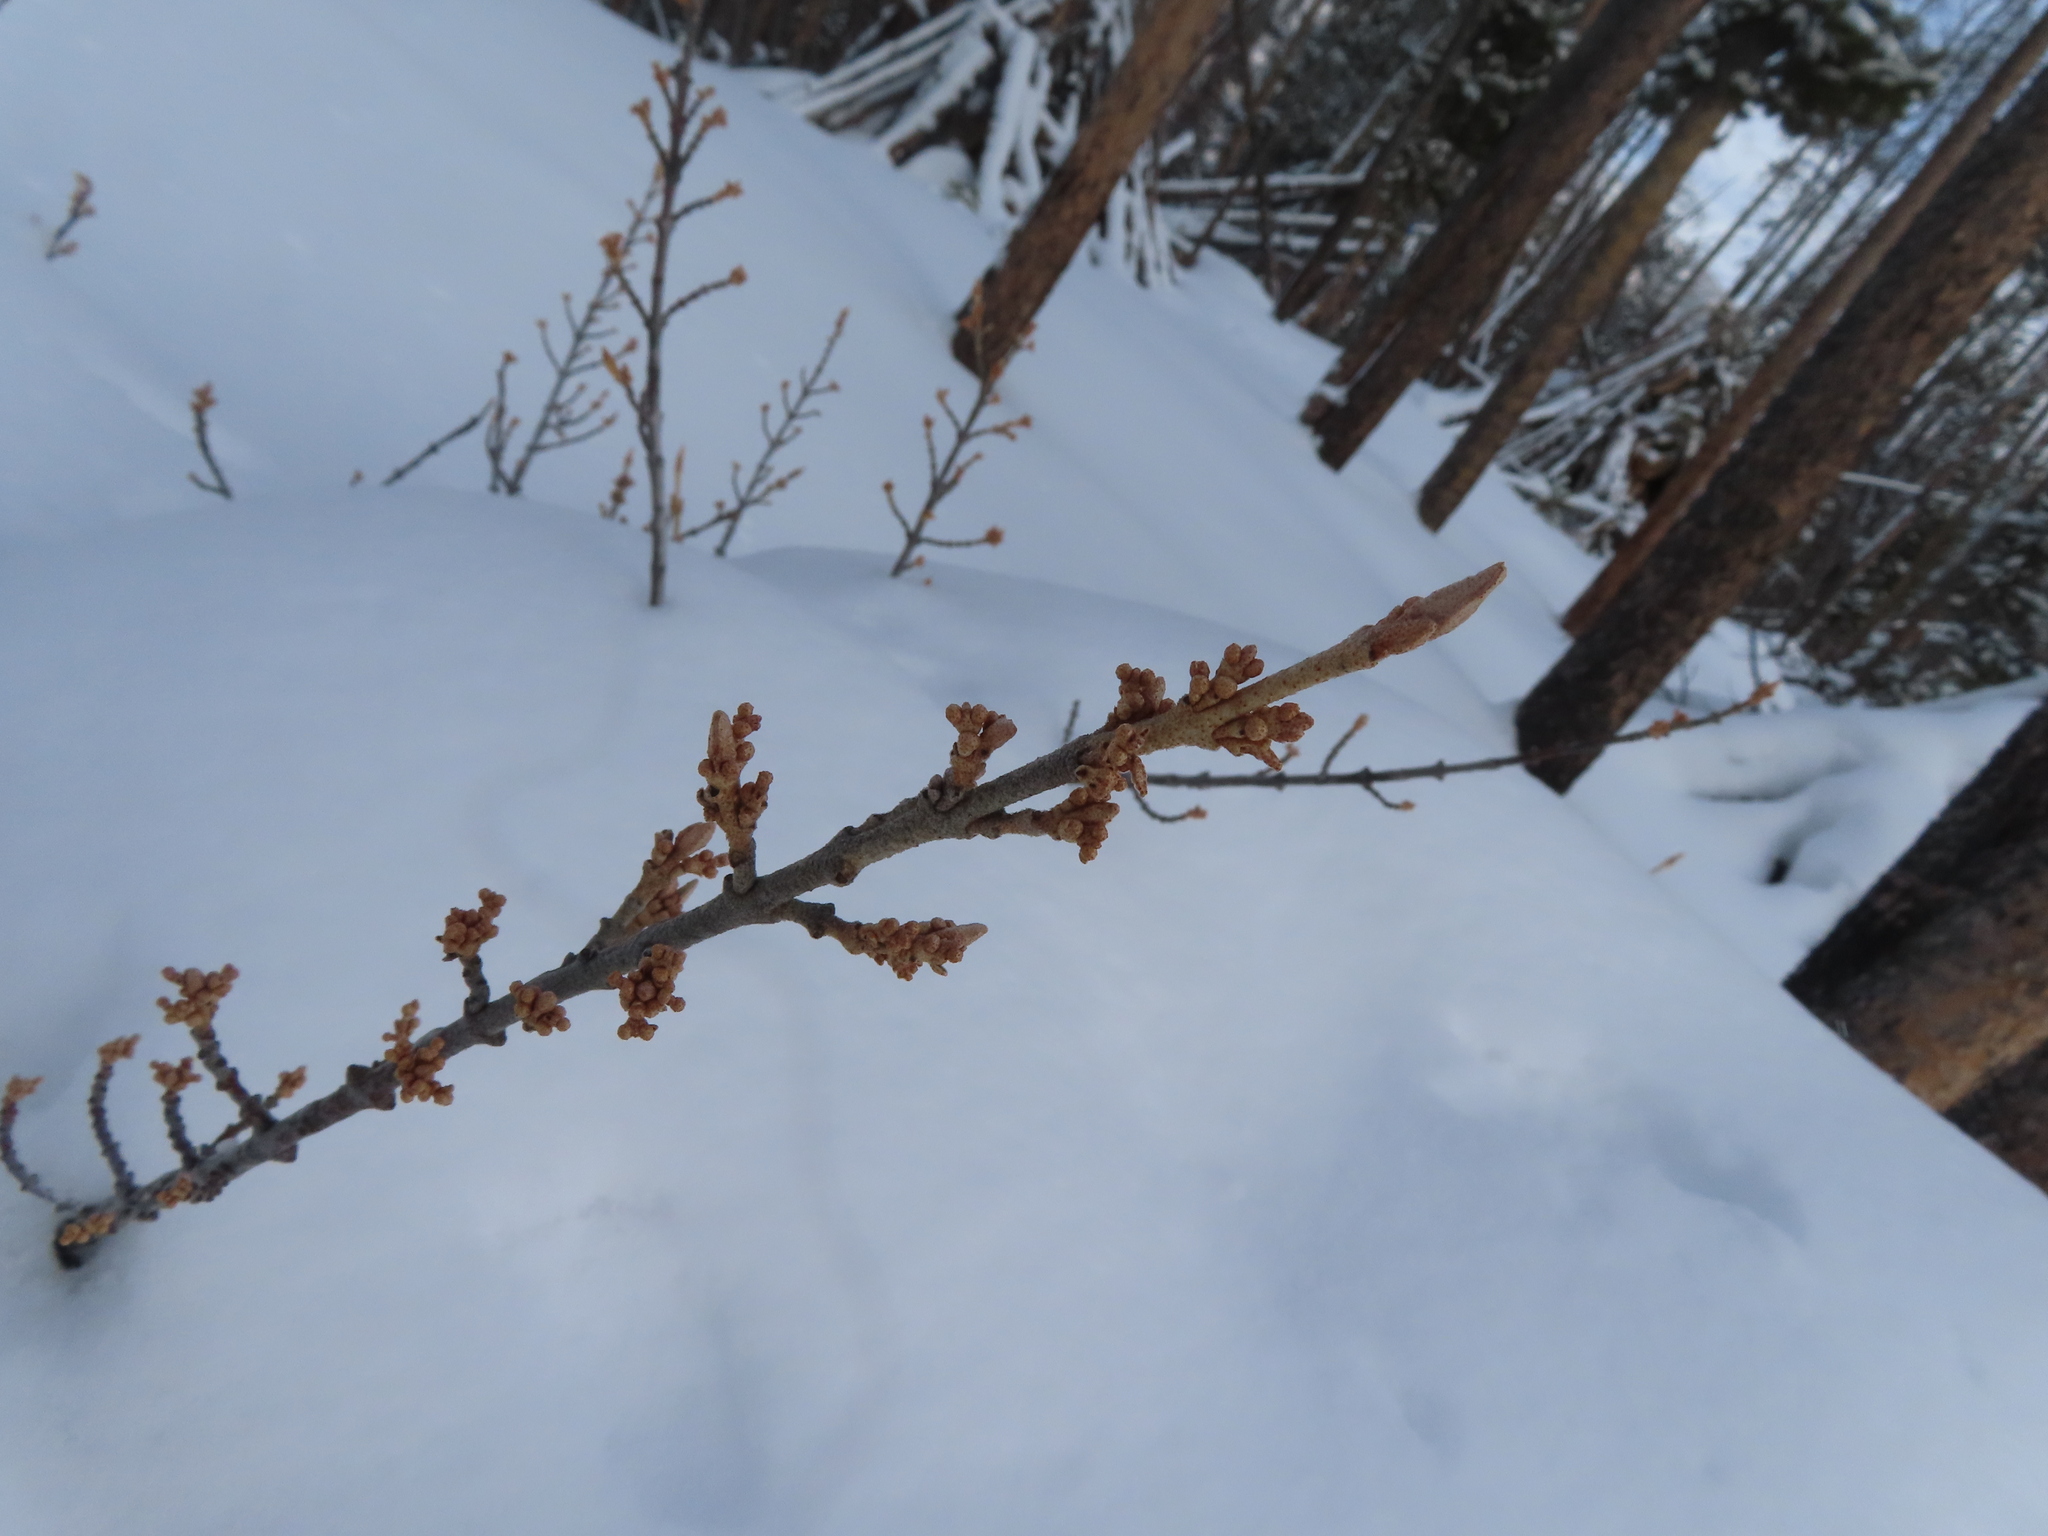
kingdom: Plantae
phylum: Tracheophyta
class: Magnoliopsida
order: Rosales
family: Elaeagnaceae
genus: Shepherdia
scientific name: Shepherdia canadensis
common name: Soapberry
